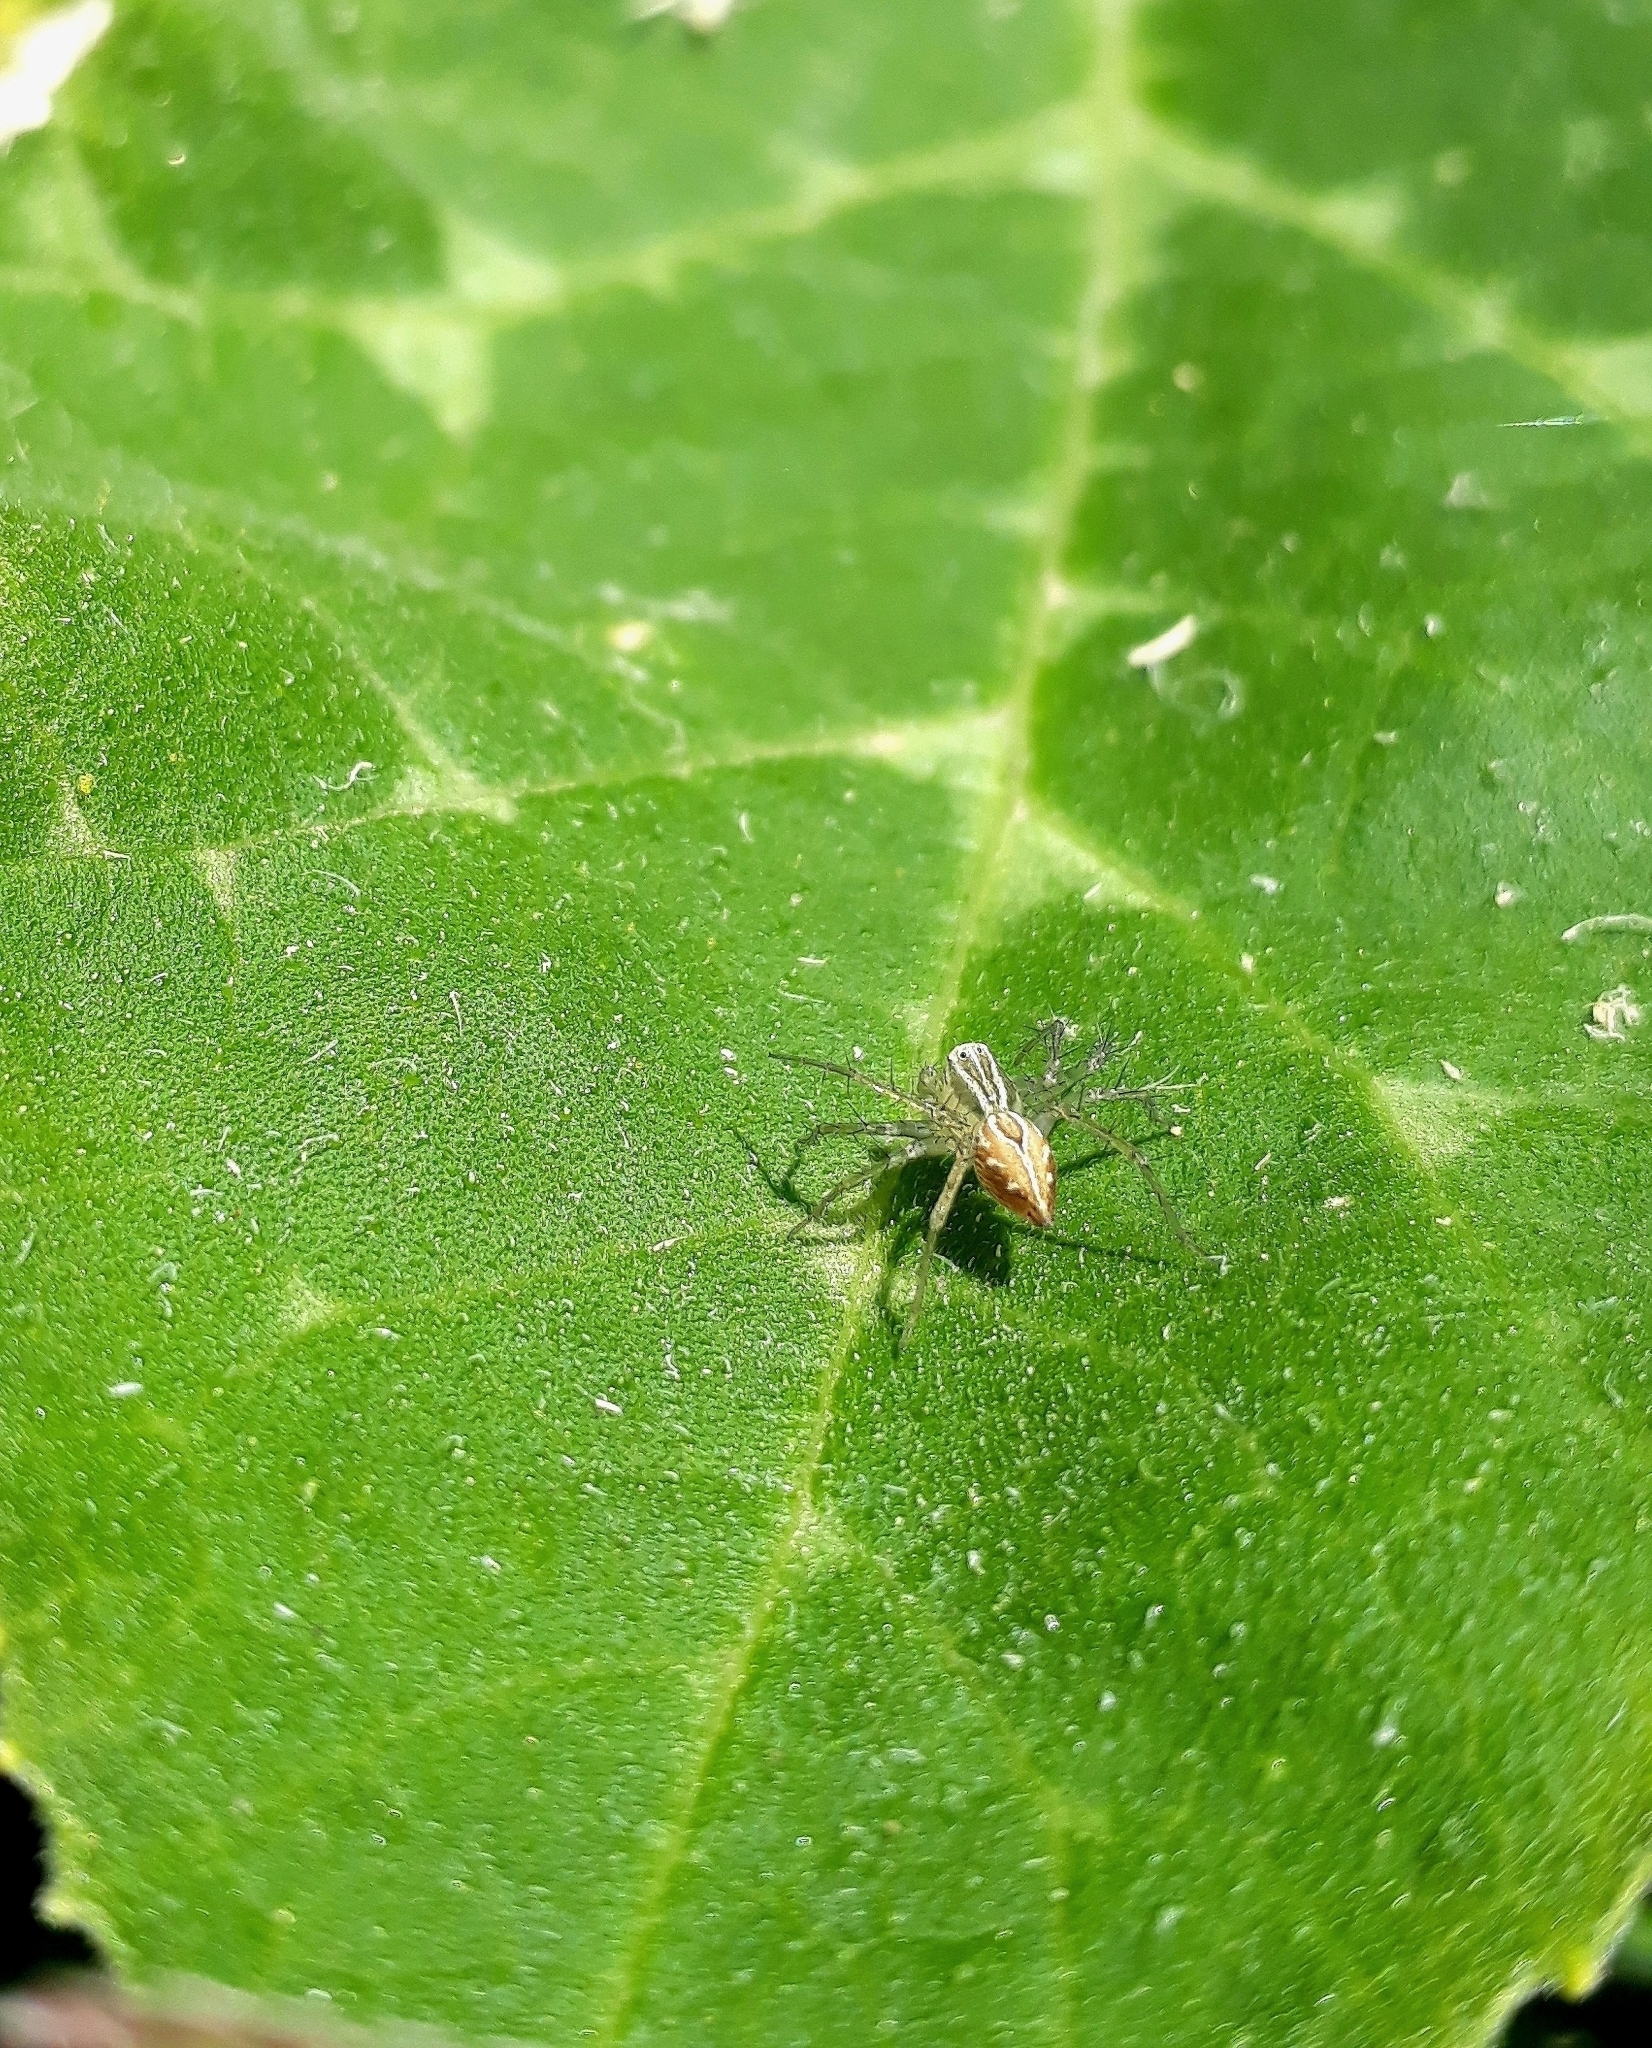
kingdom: Animalia
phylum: Arthropoda
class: Arachnida
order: Araneae
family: Oxyopidae
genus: Oxyopes
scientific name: Oxyopes salticus
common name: Lynx spiders
